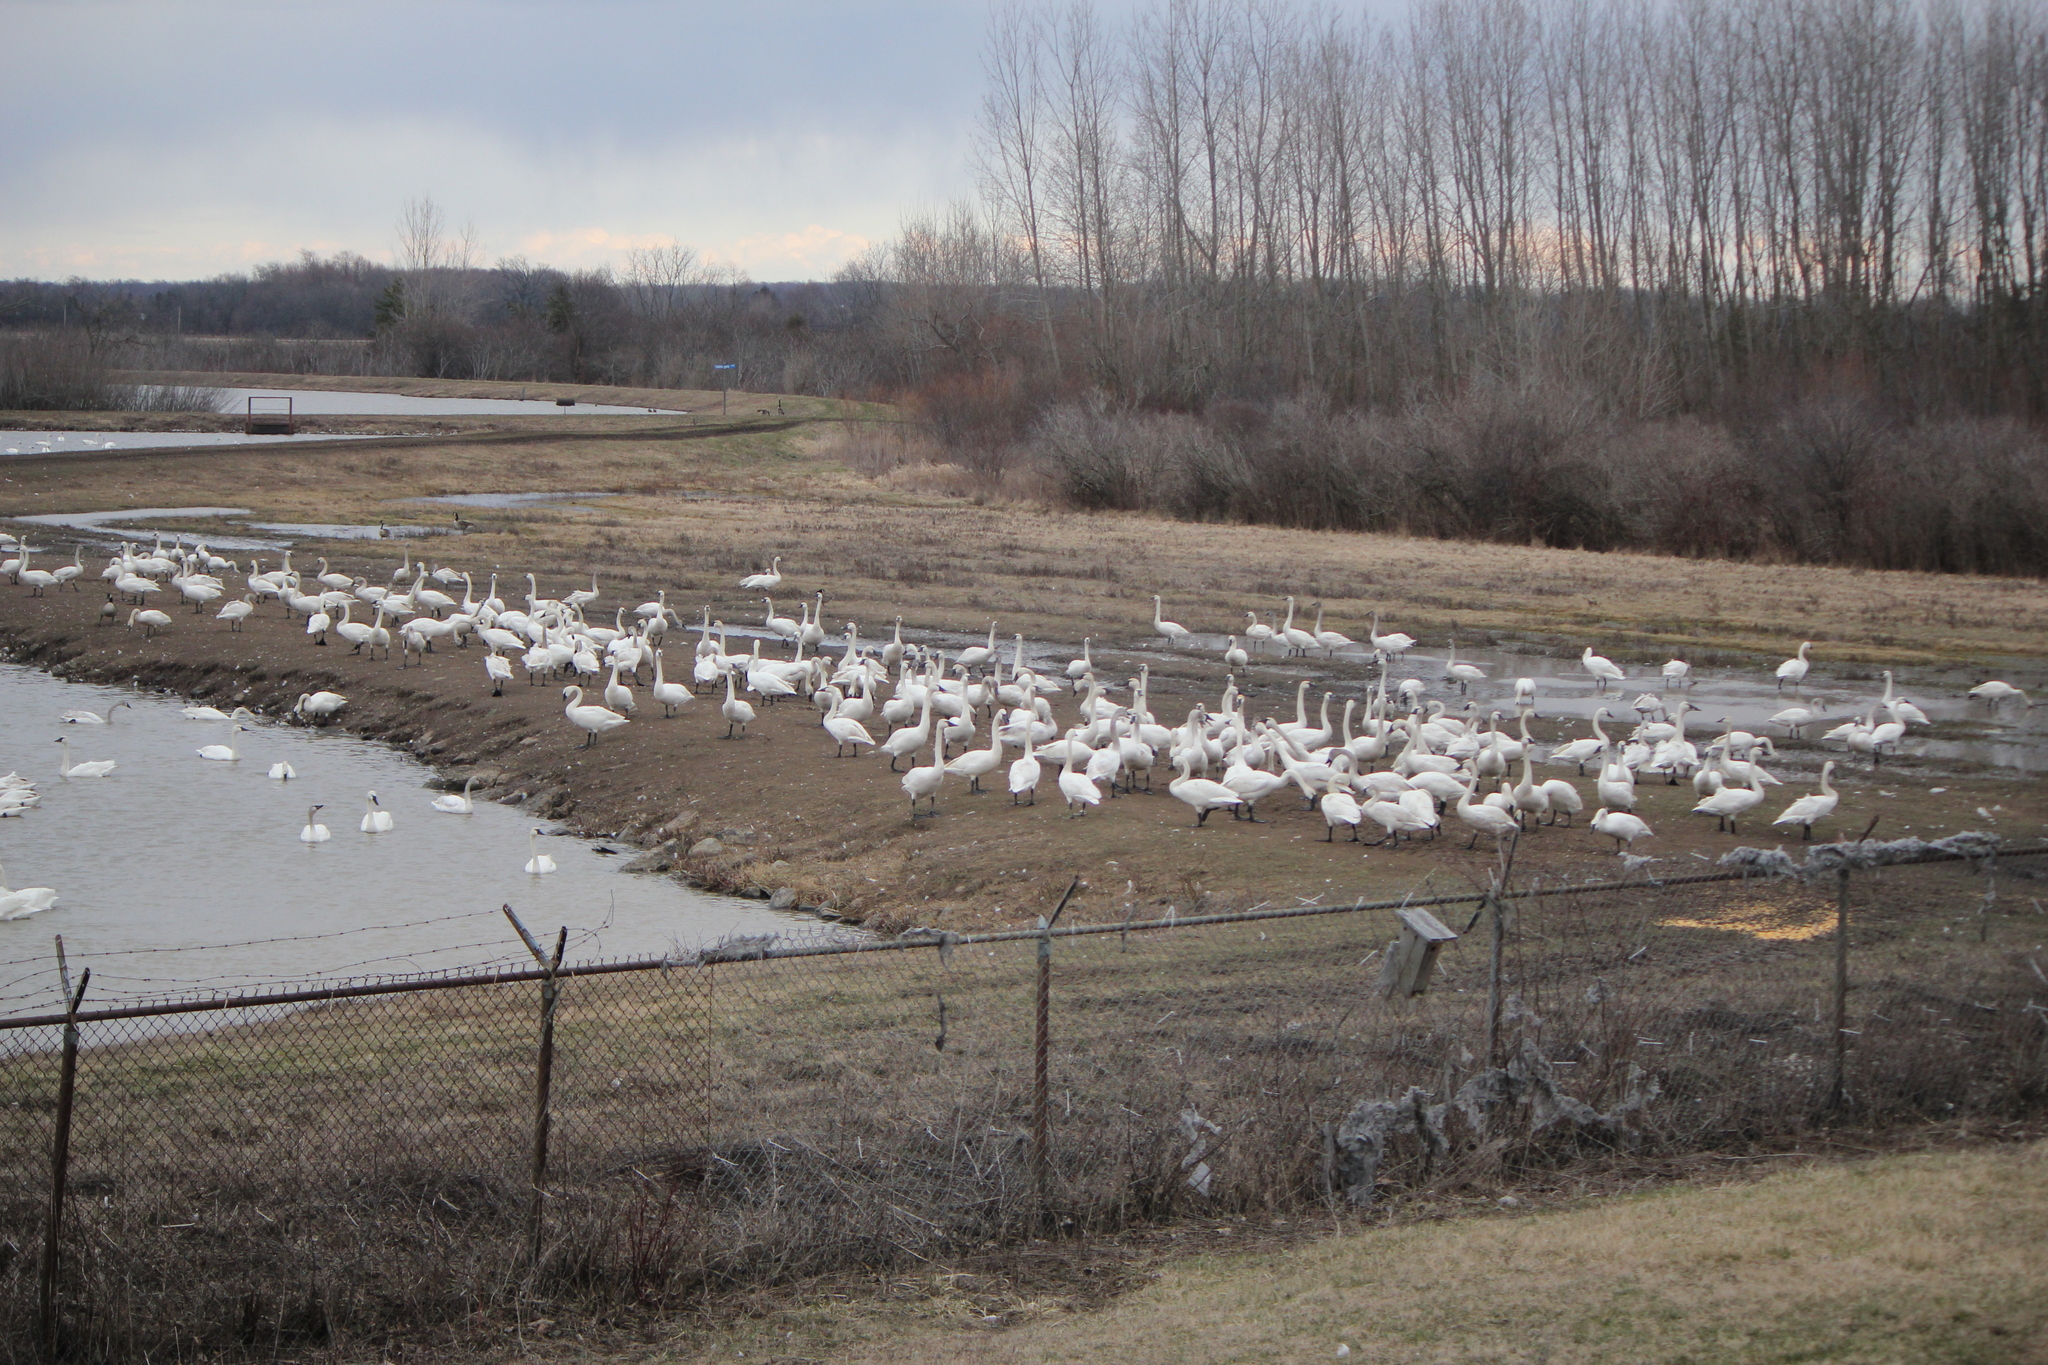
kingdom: Animalia
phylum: Chordata
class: Aves
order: Anseriformes
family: Anatidae
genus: Cygnus
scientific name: Cygnus columbianus
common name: Tundra swan
